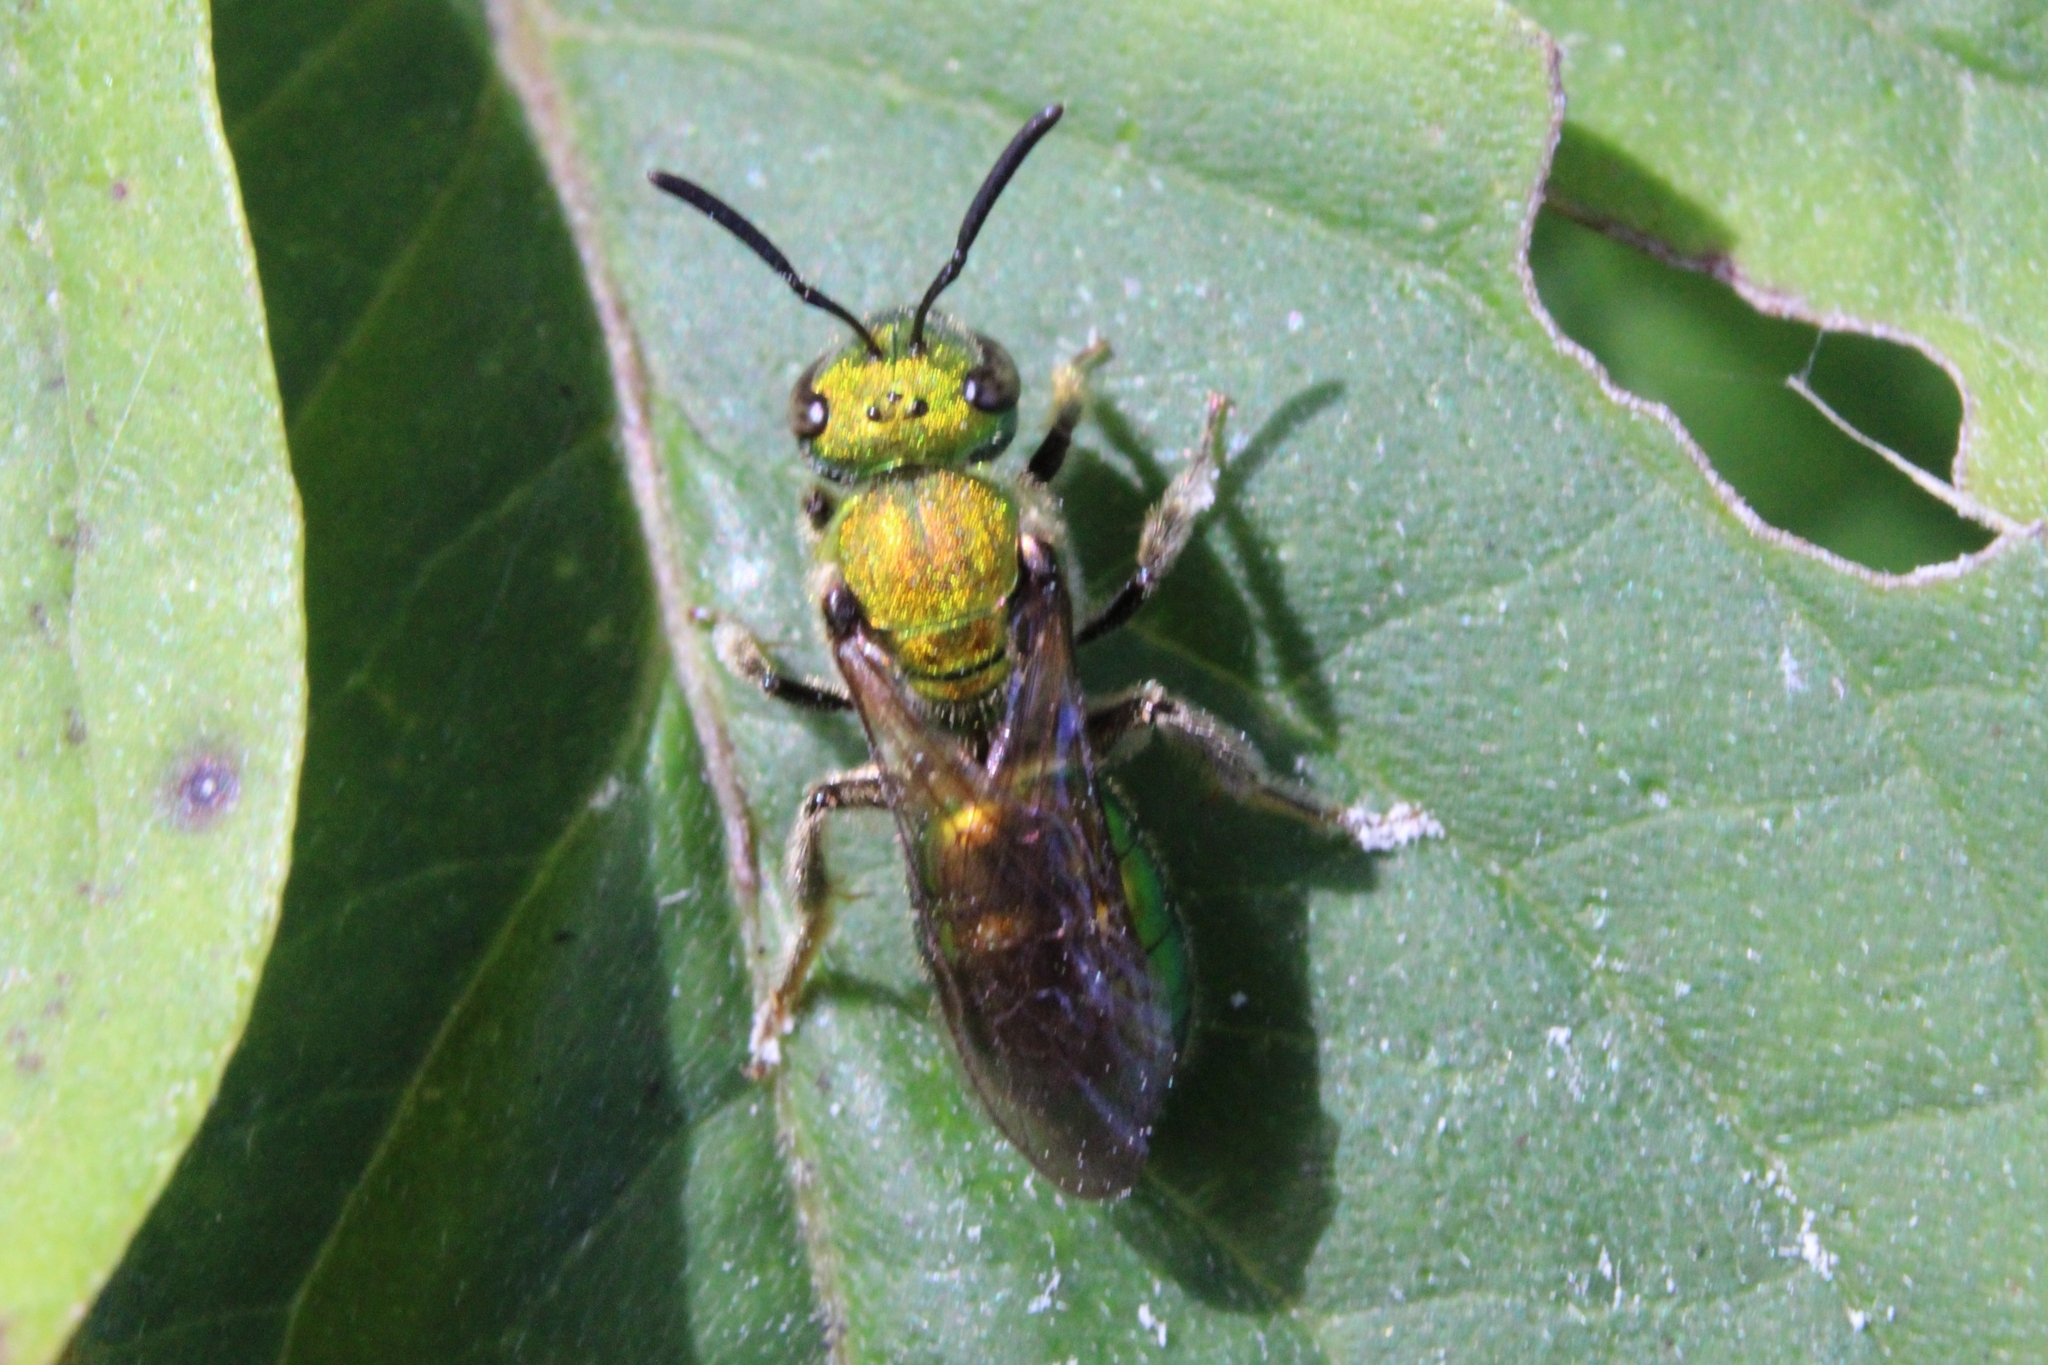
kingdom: Animalia
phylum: Arthropoda
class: Insecta
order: Hymenoptera
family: Halictidae
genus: Augochlora
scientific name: Augochlora pura
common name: Pure green sweat bee
